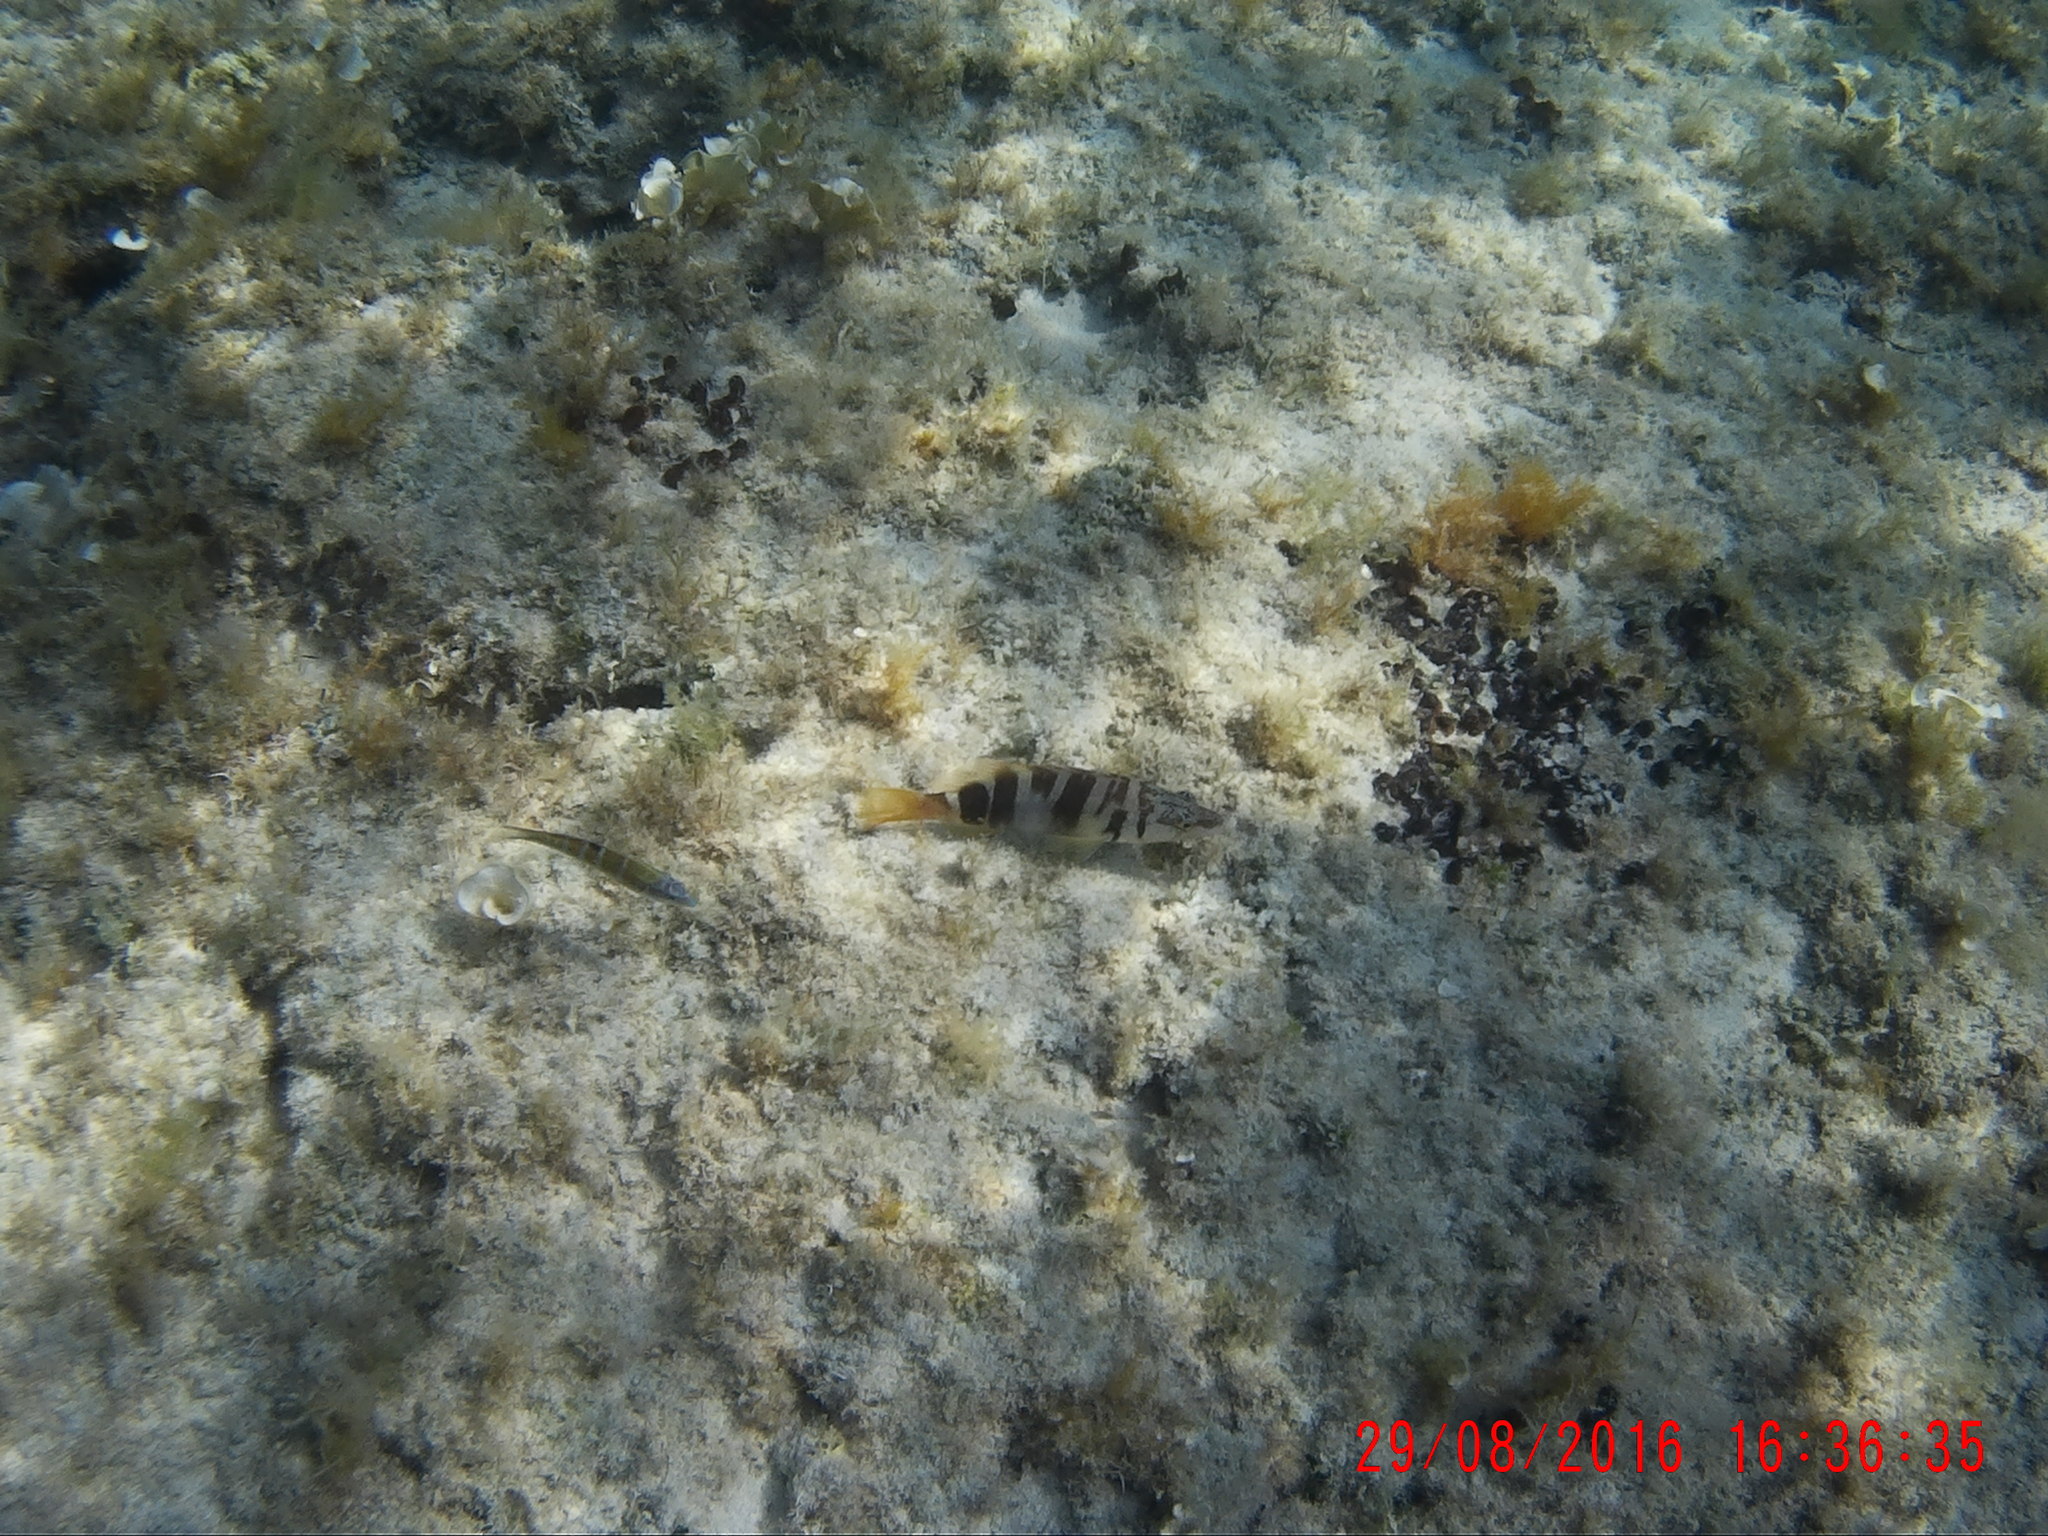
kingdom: Animalia
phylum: Chordata
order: Perciformes
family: Serranidae
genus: Serranus
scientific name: Serranus scriba
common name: Painted comber
